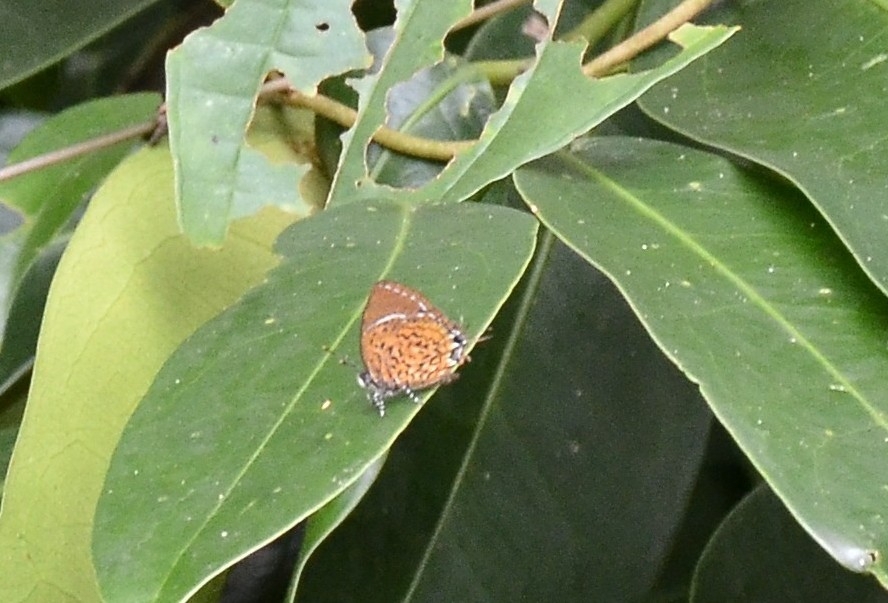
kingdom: Animalia
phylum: Arthropoda
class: Insecta
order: Lepidoptera
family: Lycaenidae
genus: Rathinda
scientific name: Rathinda amor
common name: Monkey puzzle
